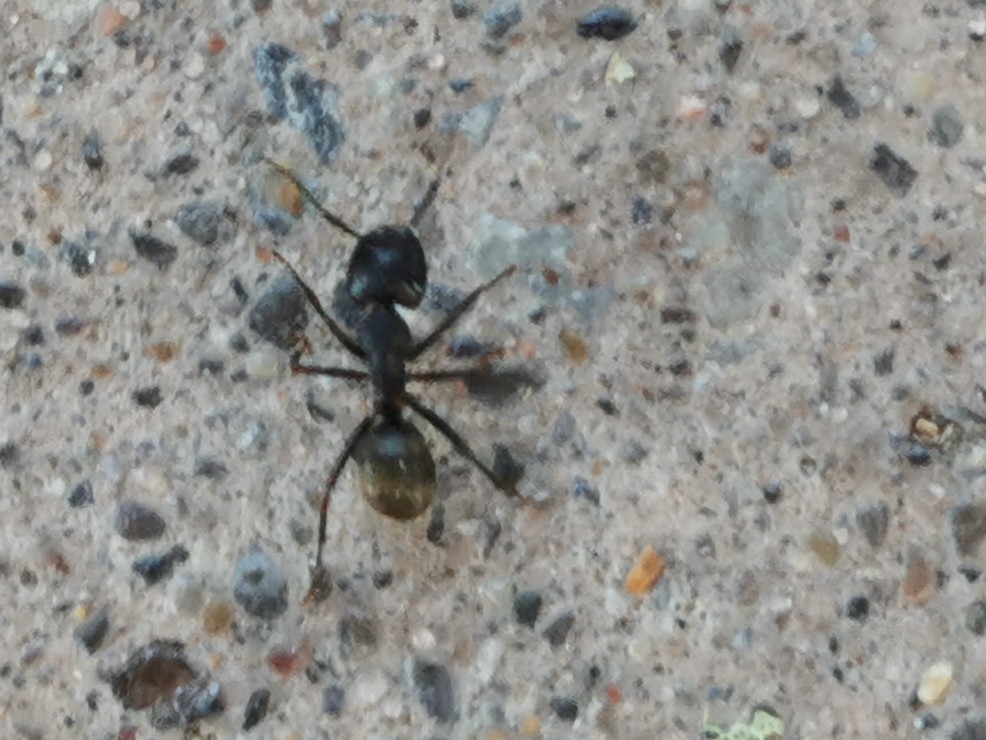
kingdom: Animalia
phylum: Arthropoda
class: Insecta
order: Hymenoptera
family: Formicidae
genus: Camponotus
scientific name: Camponotus pennsylvanicus
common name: Black carpenter ant
